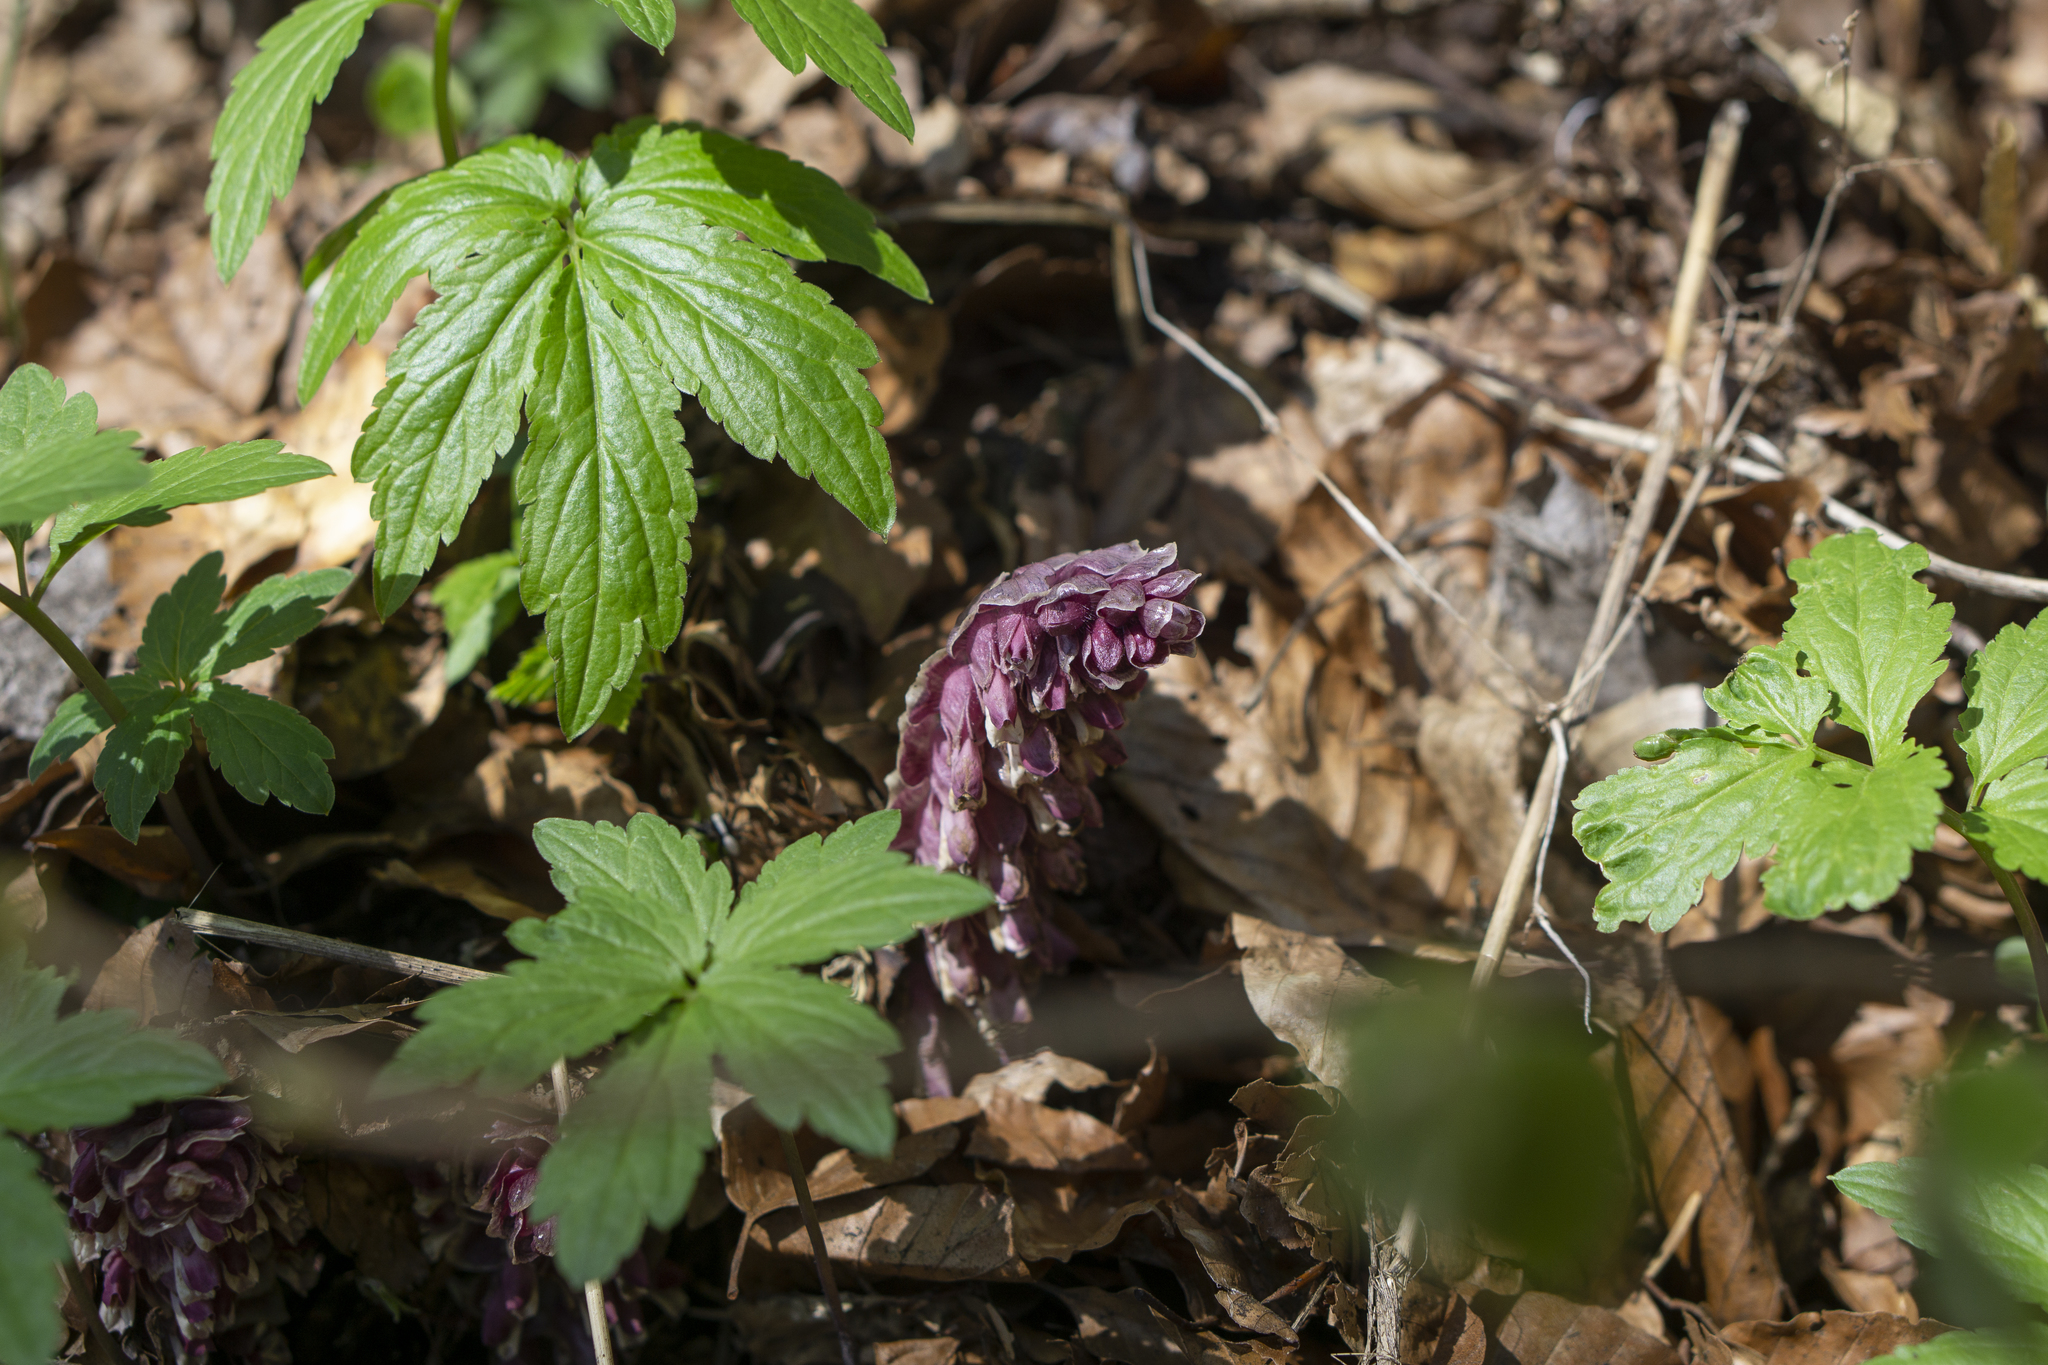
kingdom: Plantae
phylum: Tracheophyta
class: Magnoliopsida
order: Lamiales
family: Orobanchaceae
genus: Lathraea
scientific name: Lathraea squamaria
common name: Toothwort
